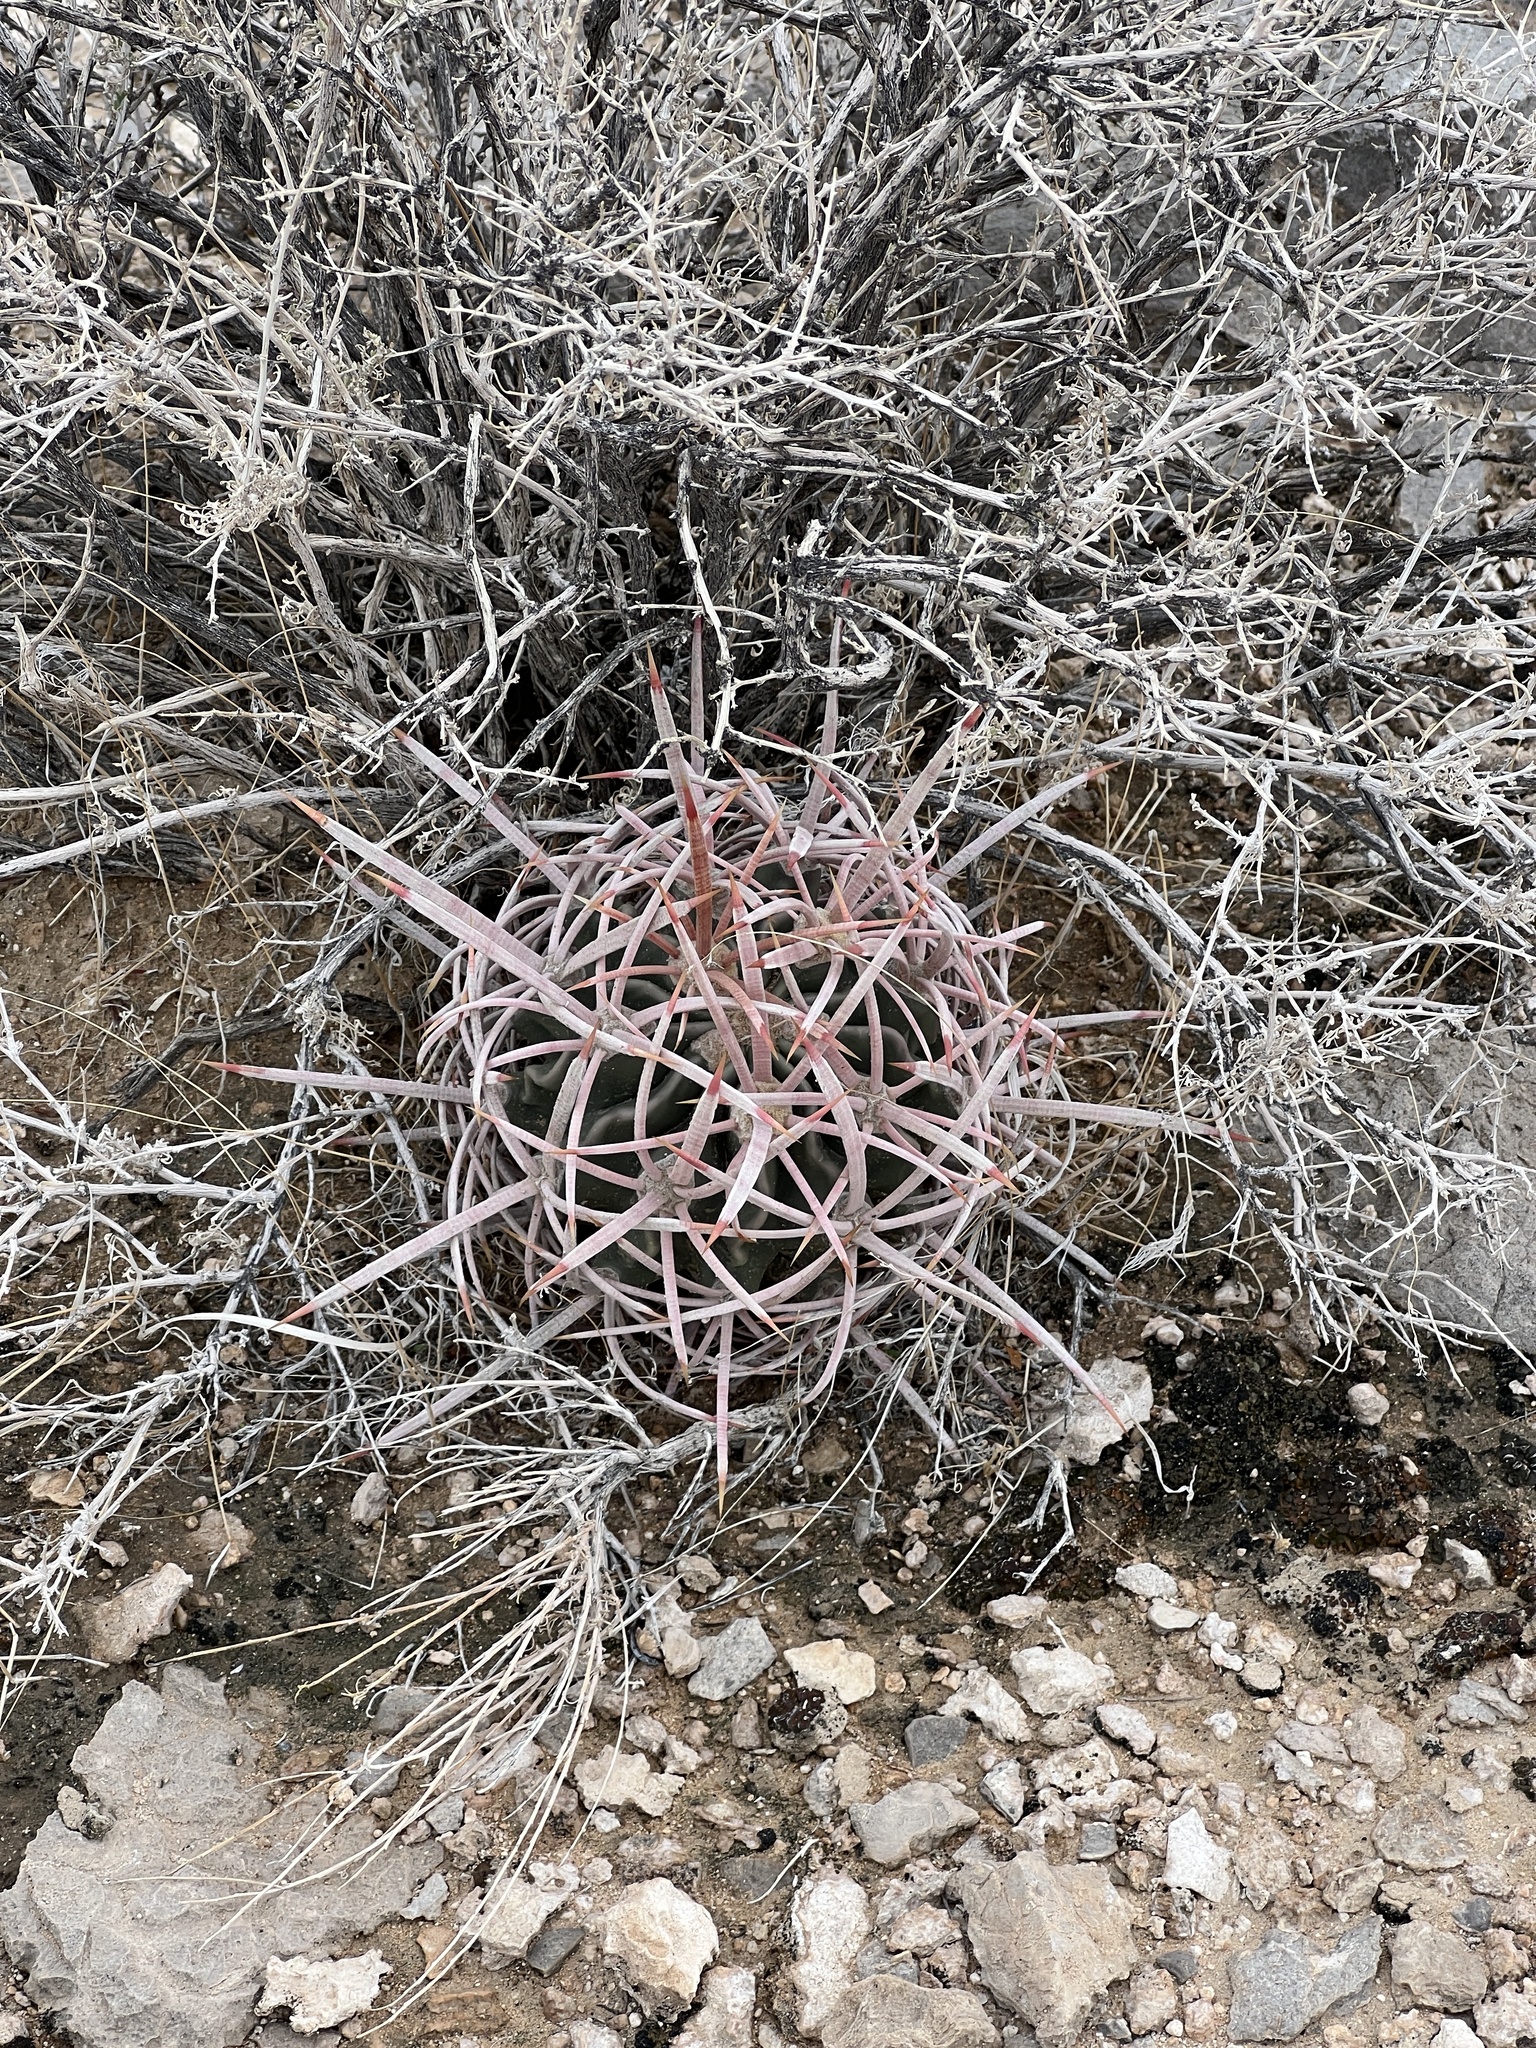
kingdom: Plantae
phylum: Tracheophyta
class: Magnoliopsida
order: Caryophyllales
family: Cactaceae
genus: Echinocactus
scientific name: Echinocactus polycephalus
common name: Cottontop cactus
